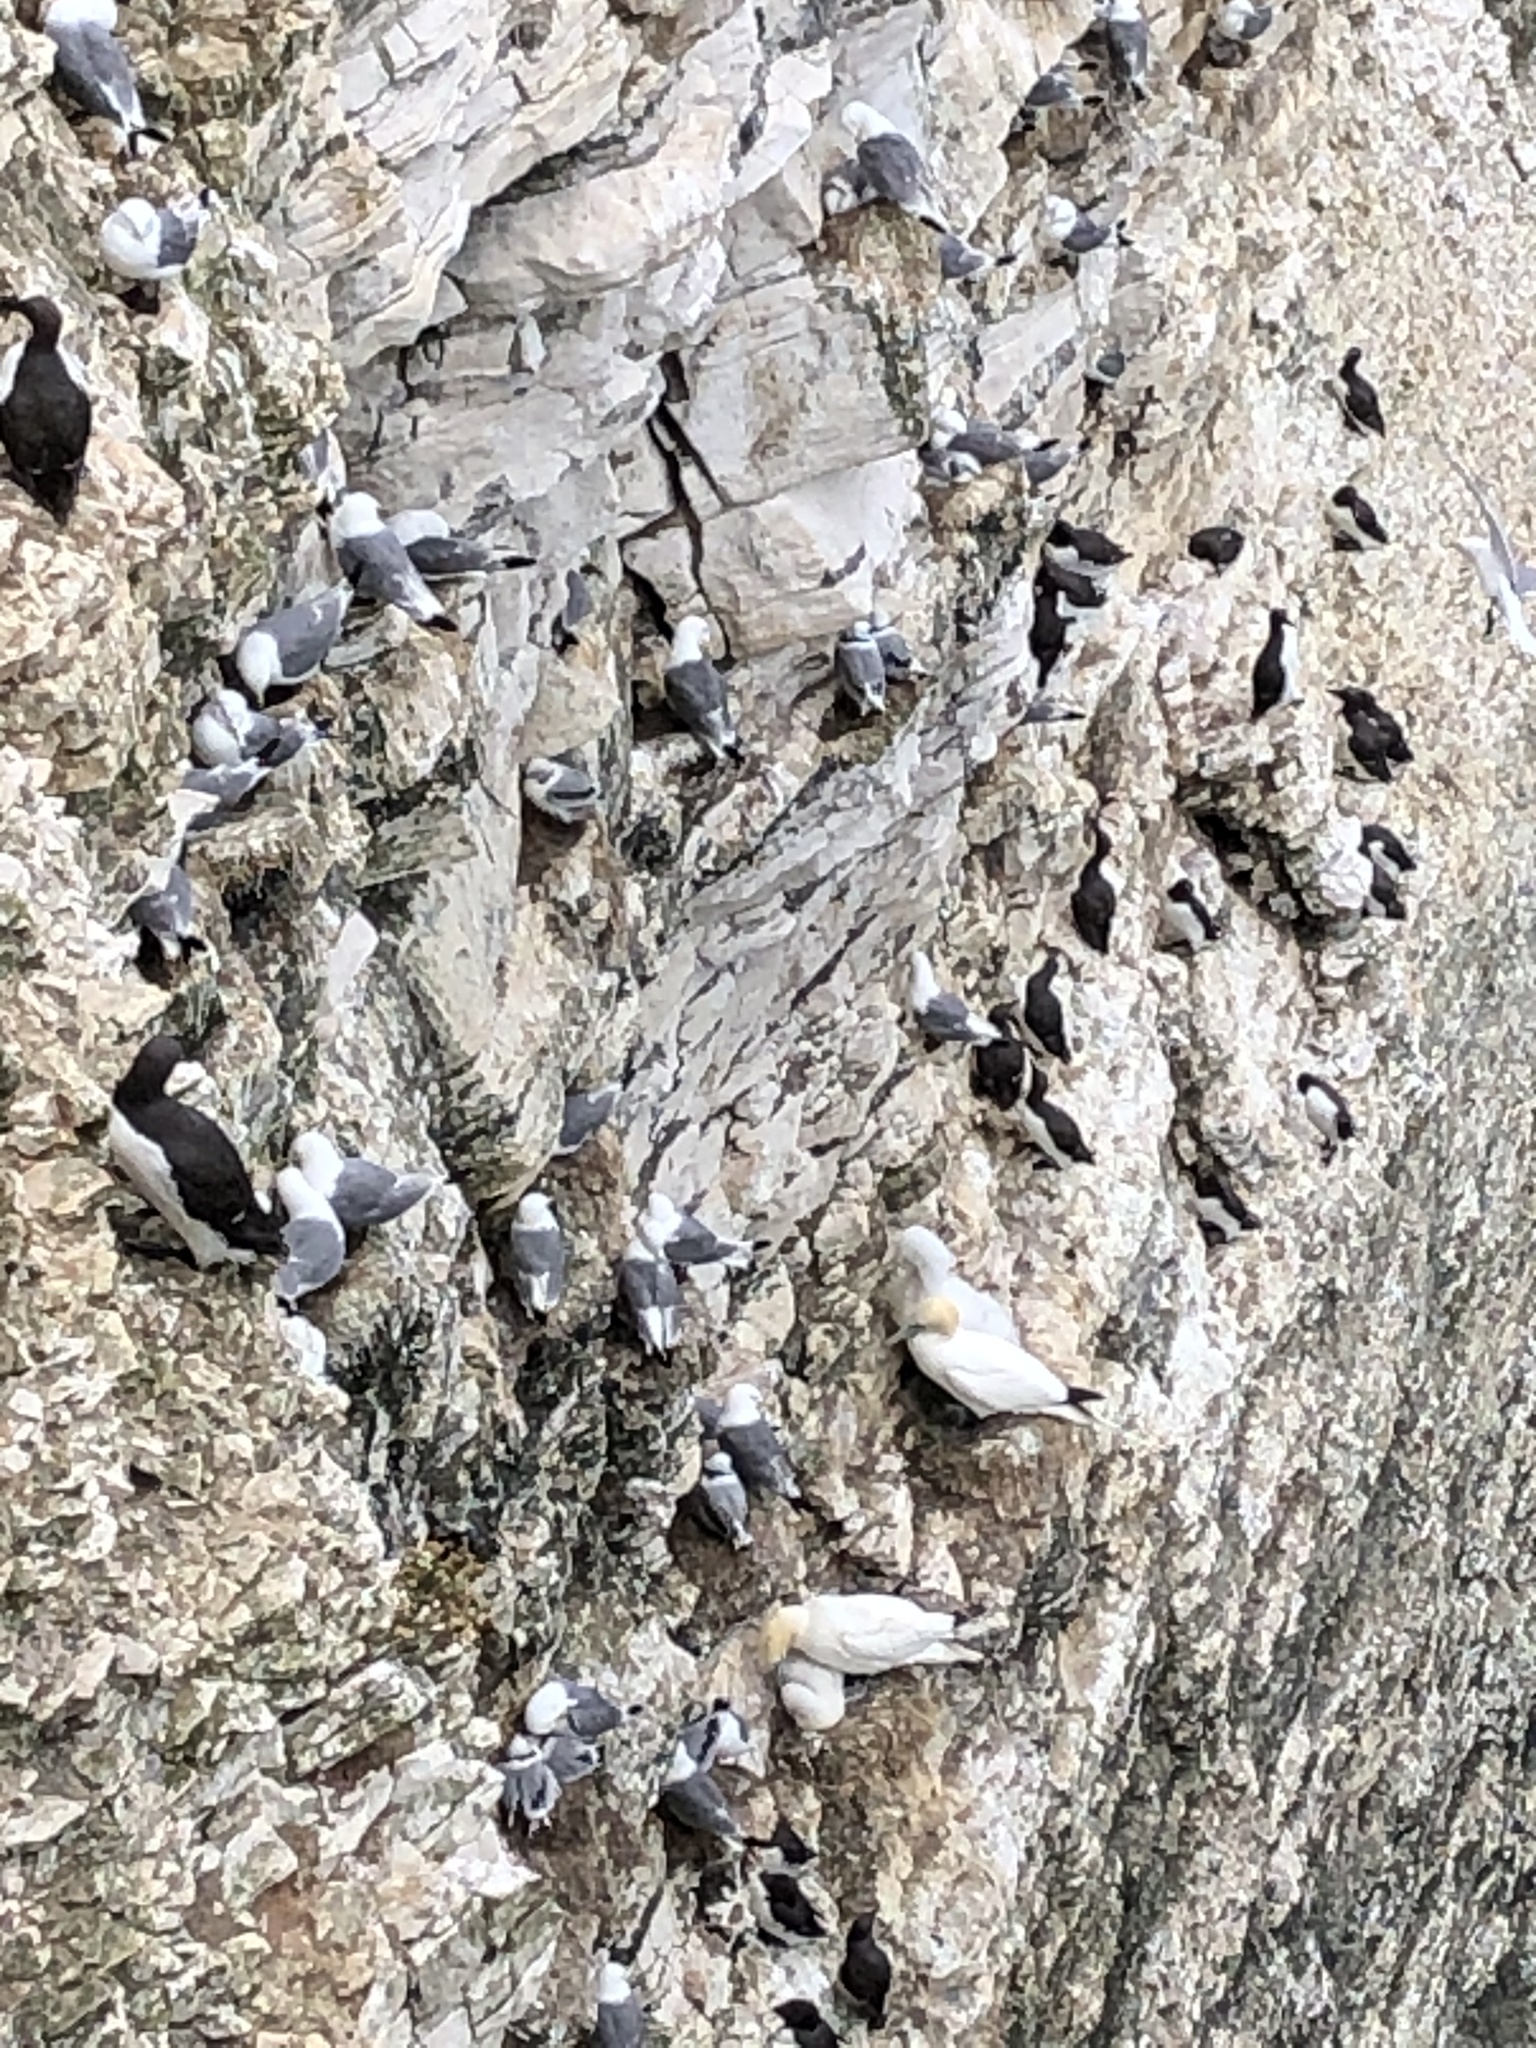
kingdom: Animalia
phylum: Chordata
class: Aves
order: Charadriiformes
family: Alcidae
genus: Uria
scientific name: Uria aalge
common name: Common murre
